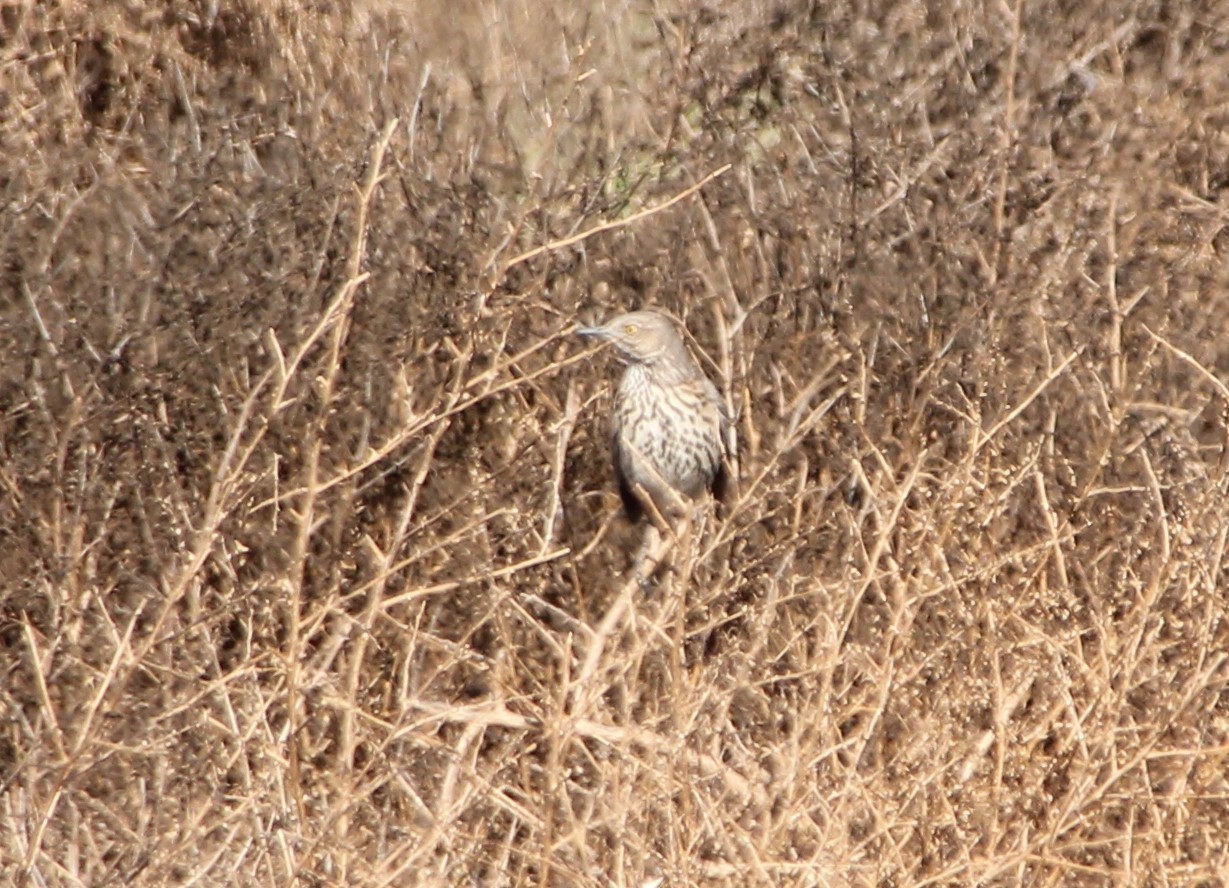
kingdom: Animalia
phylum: Chordata
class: Aves
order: Passeriformes
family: Mimidae
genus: Oreoscoptes
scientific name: Oreoscoptes montanus
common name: Sage thrasher
